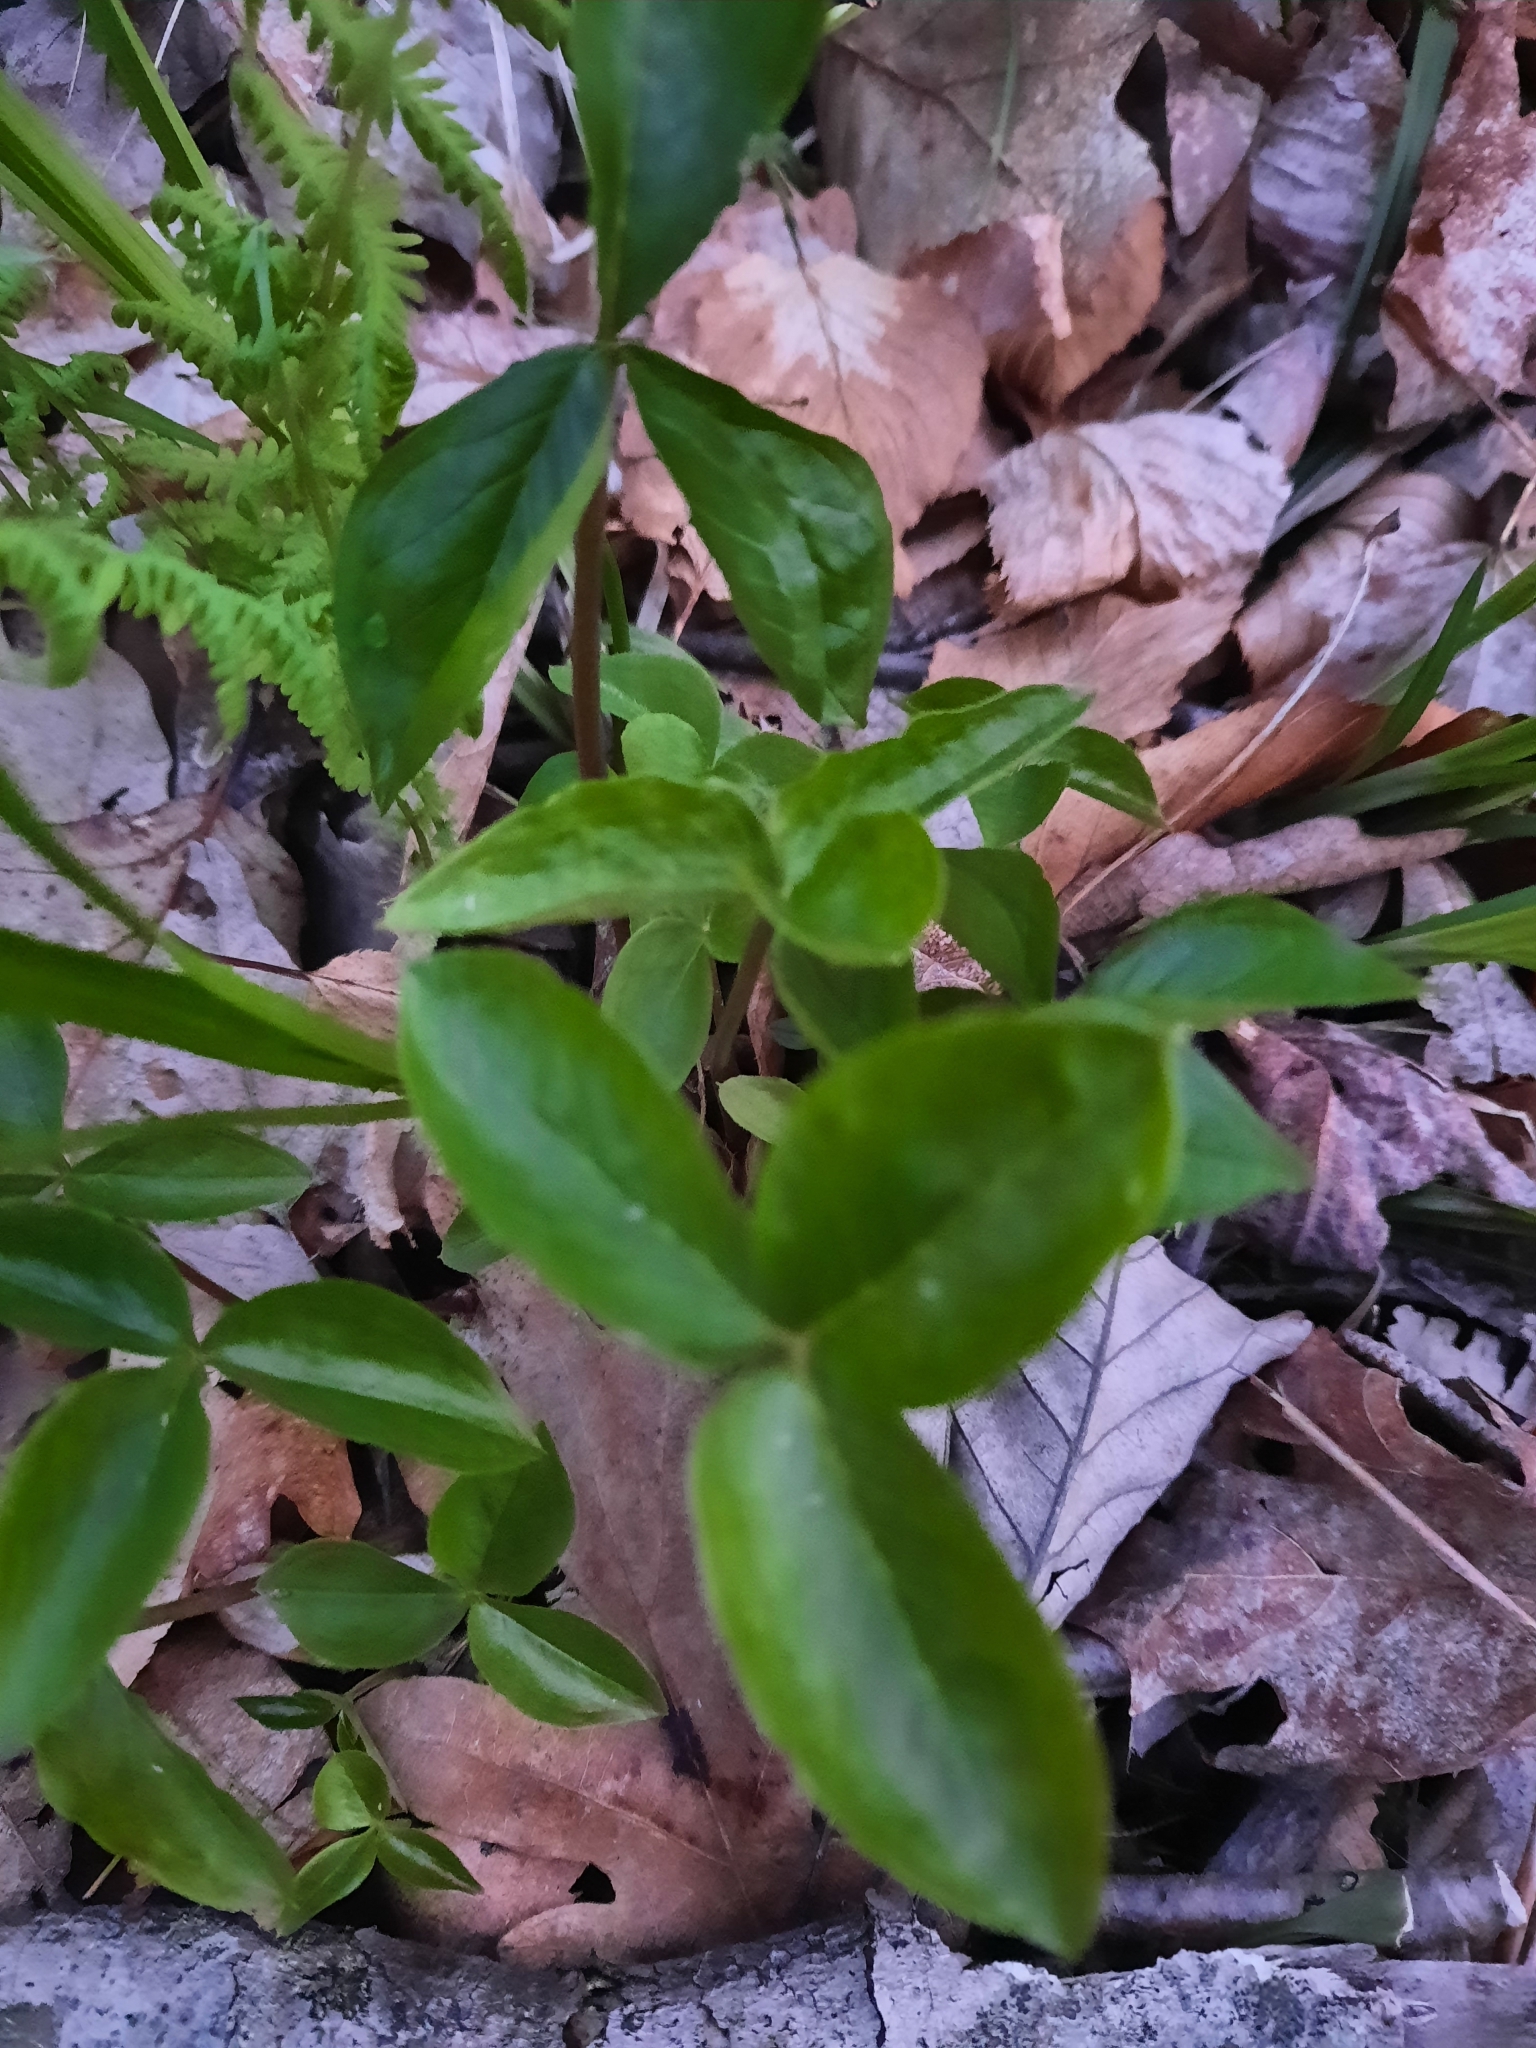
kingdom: Plantae
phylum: Tracheophyta
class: Liliopsida
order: Alismatales
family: Araceae
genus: Arisaema
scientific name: Arisaema triphyllum
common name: Jack-in-the-pulpit
